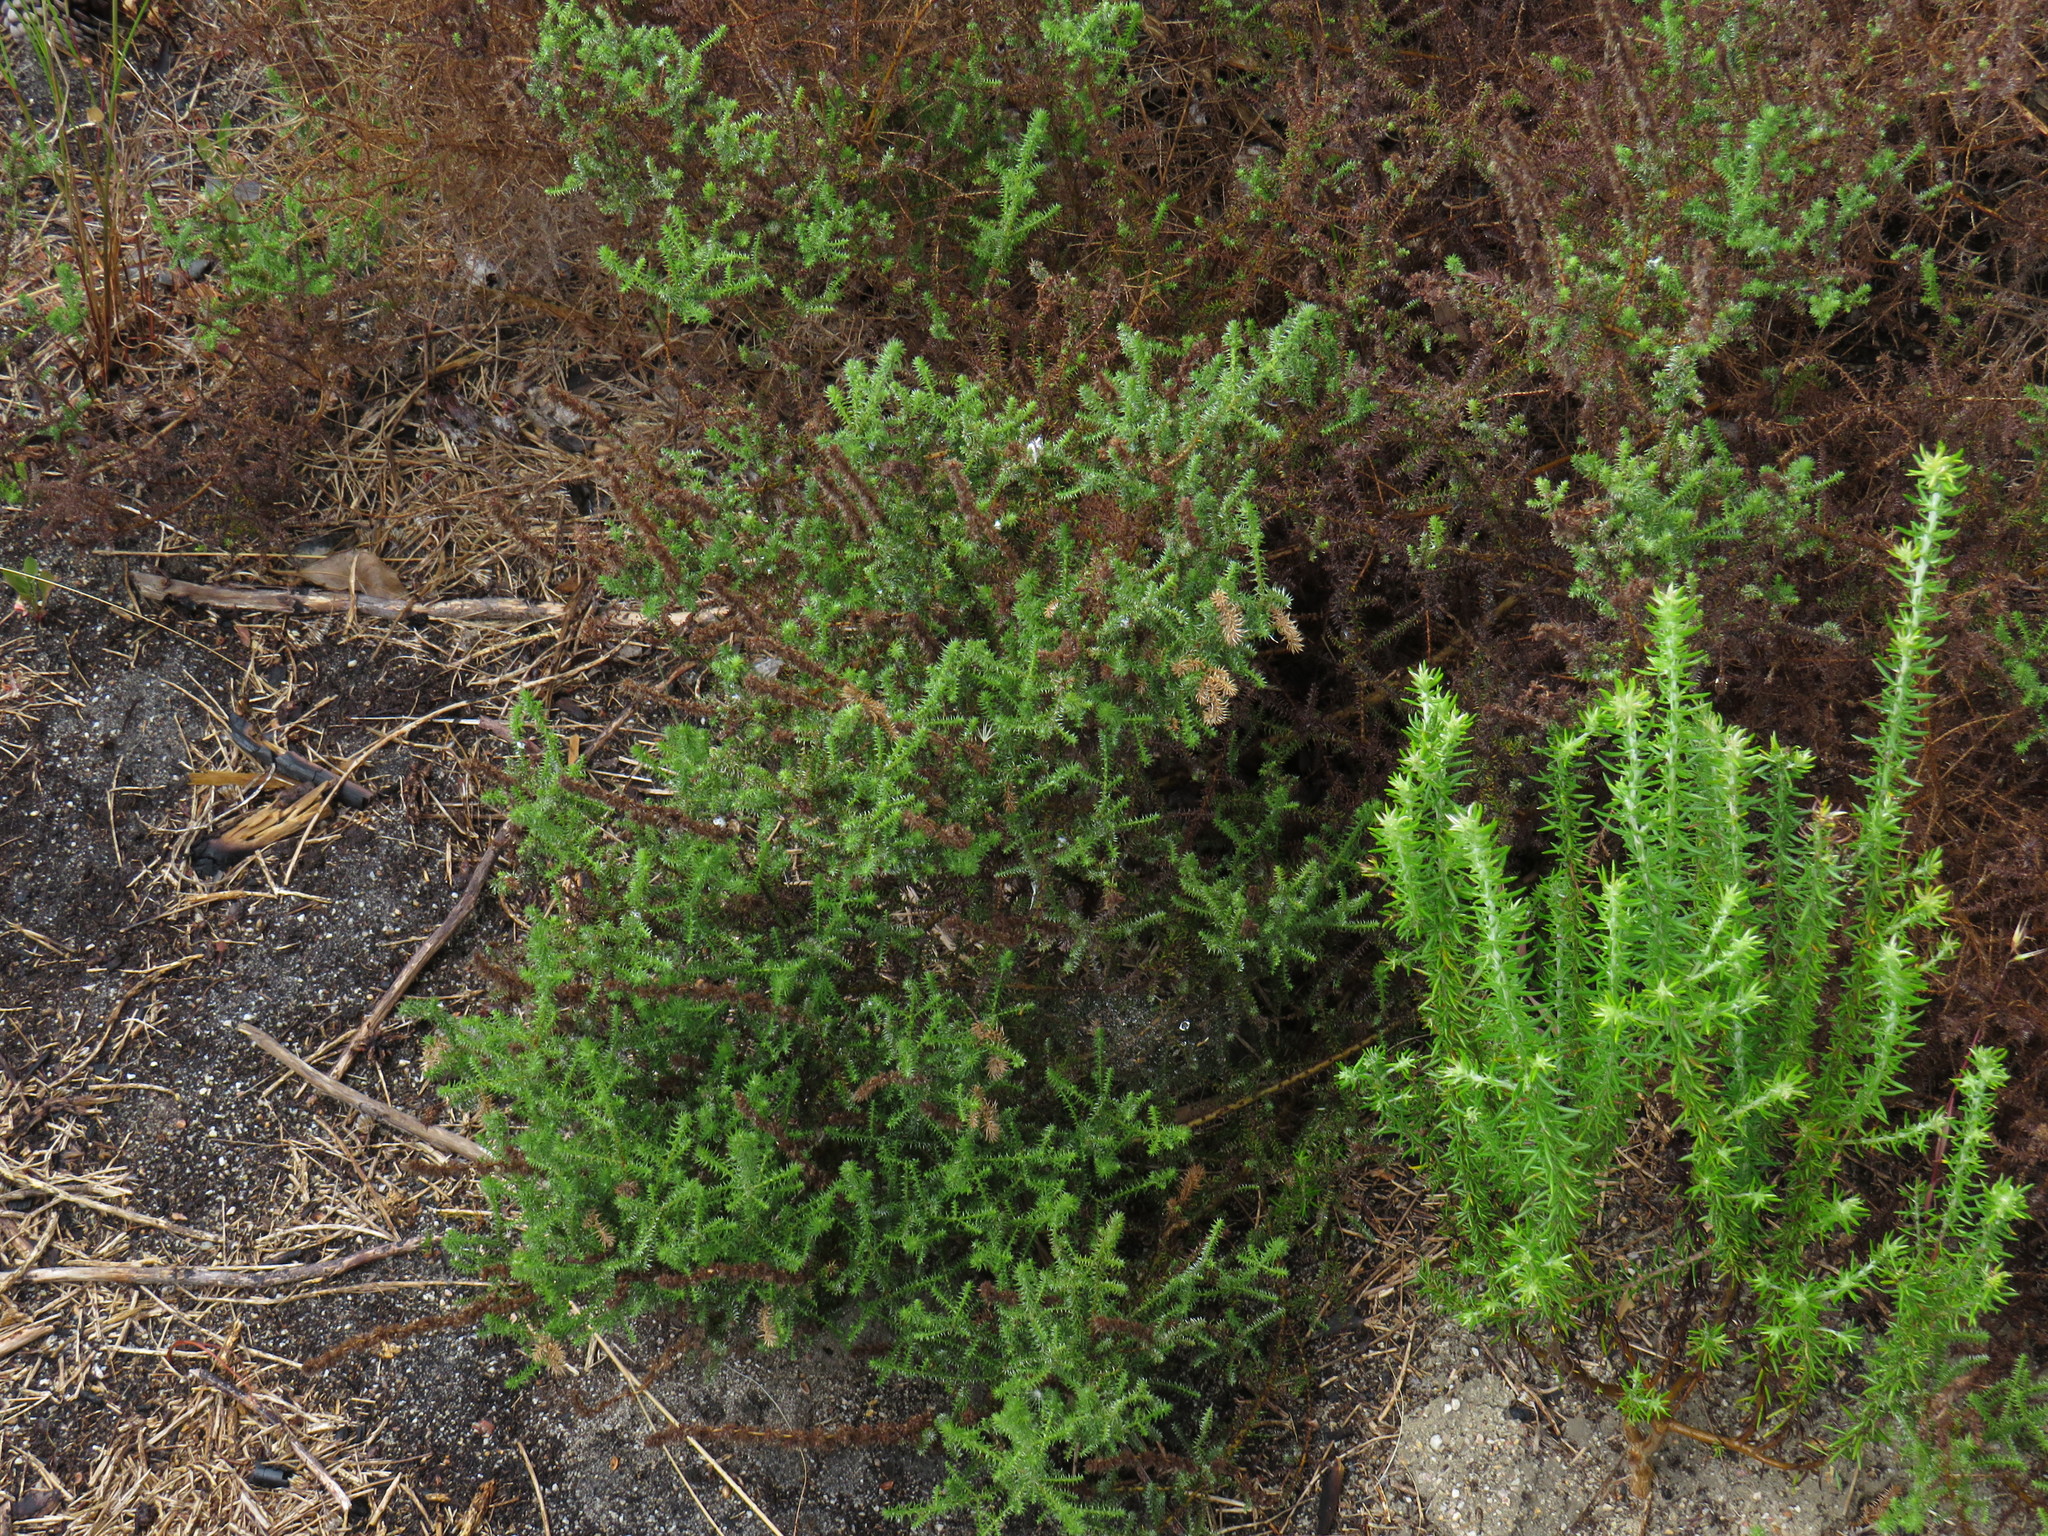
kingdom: Plantae
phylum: Tracheophyta
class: Magnoliopsida
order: Asterales
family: Asteraceae
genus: Seriphium
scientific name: Seriphium cinereum
